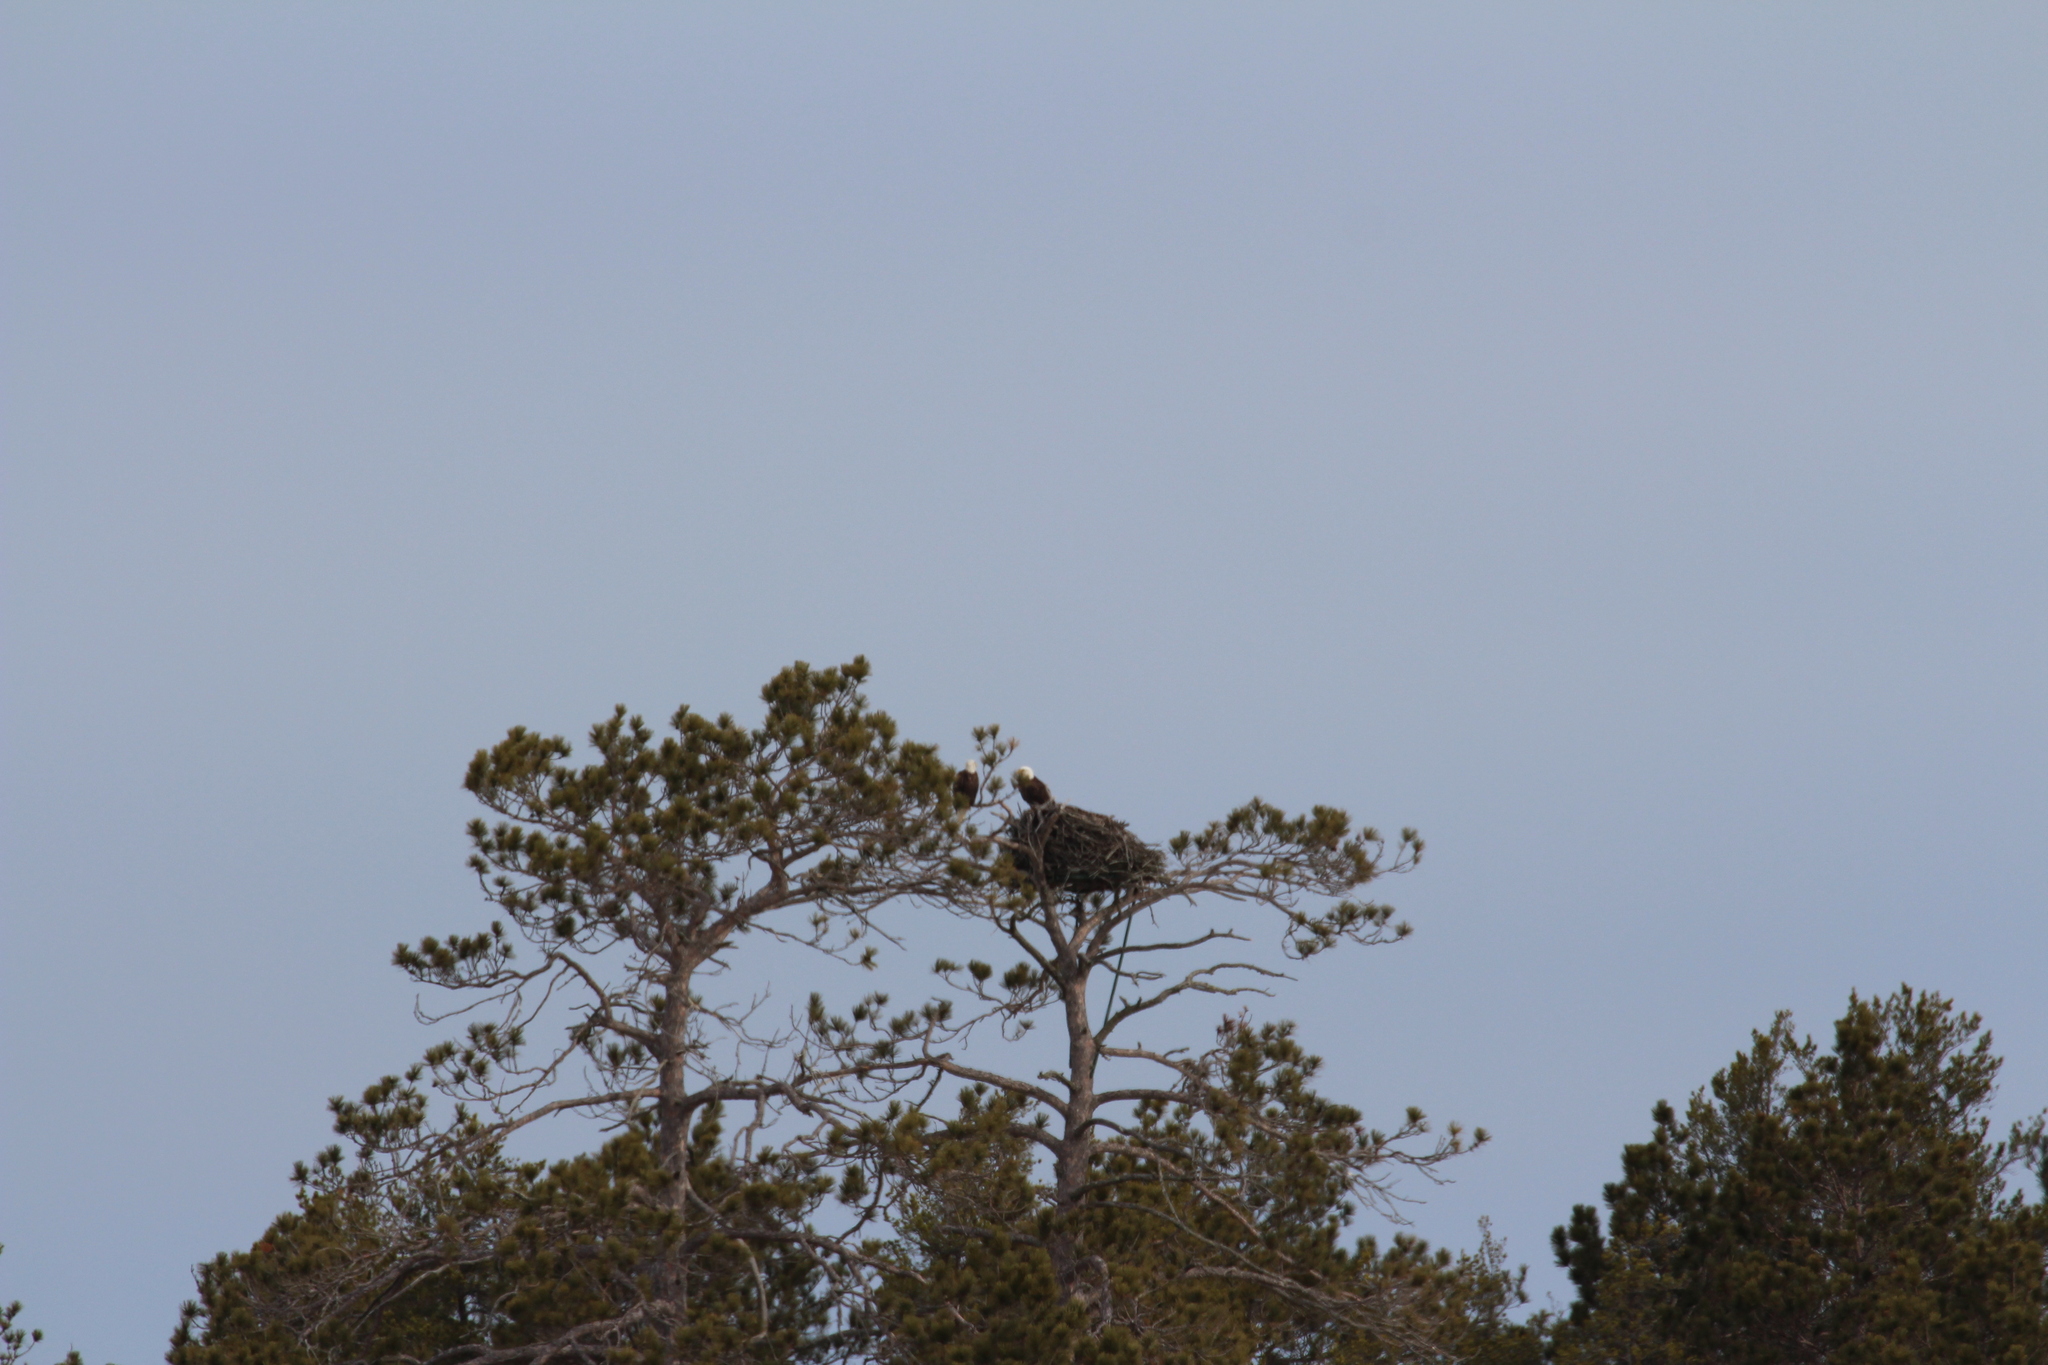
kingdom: Animalia
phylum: Chordata
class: Aves
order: Accipitriformes
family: Accipitridae
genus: Haliaeetus
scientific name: Haliaeetus leucocephalus
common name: Bald eagle
